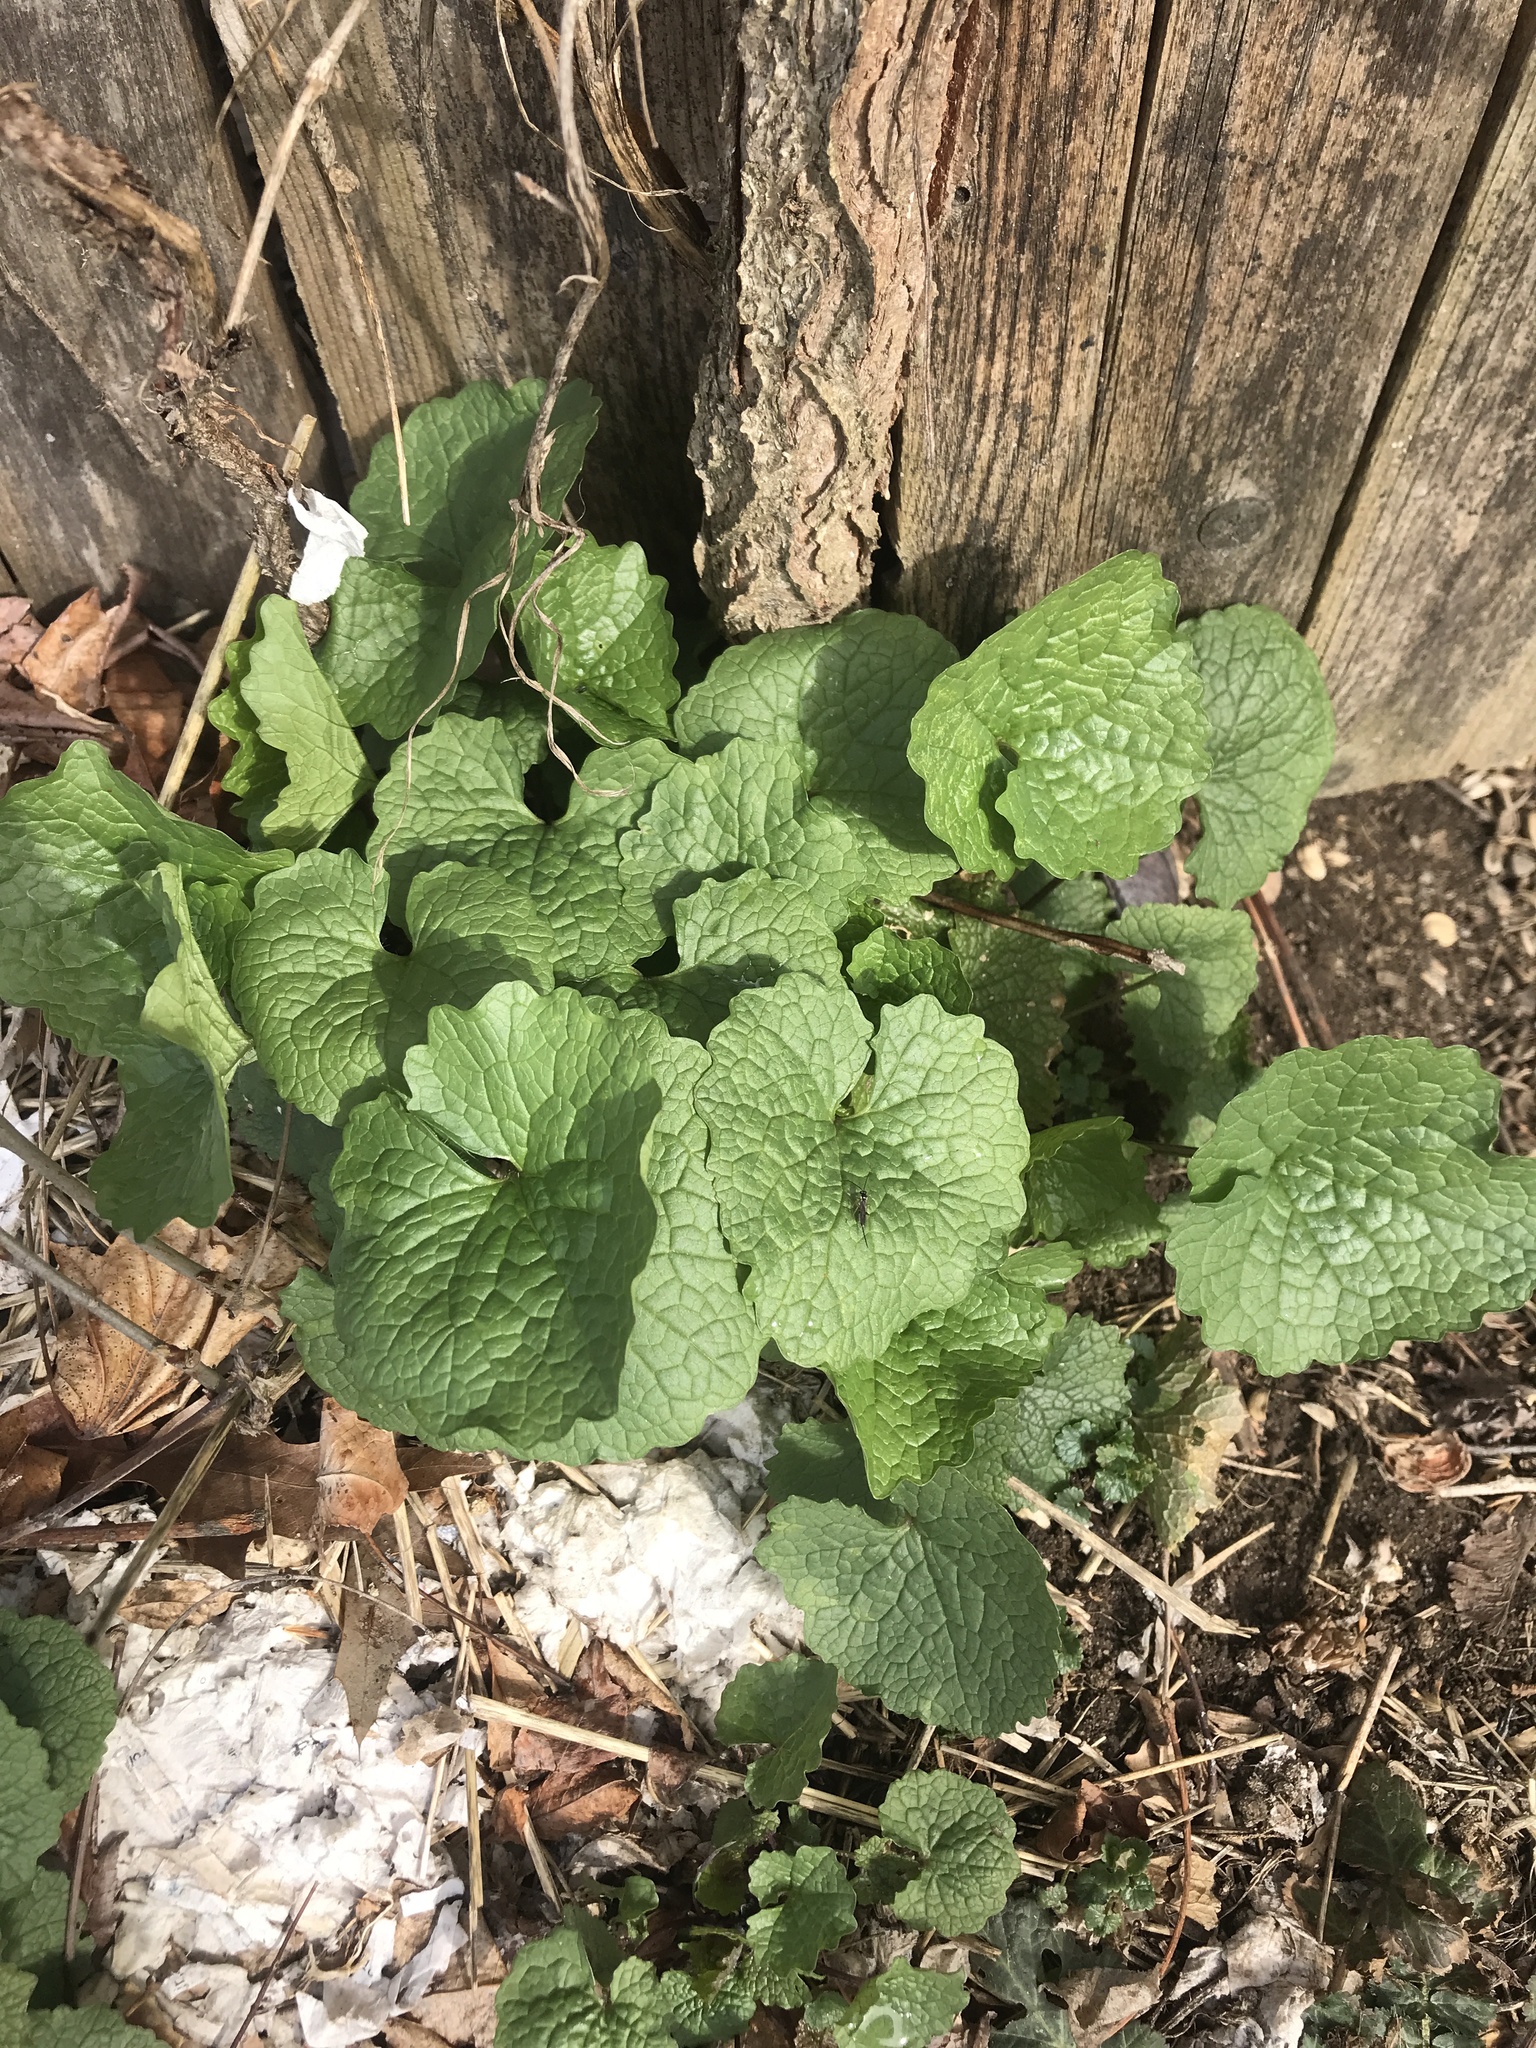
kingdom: Plantae
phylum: Tracheophyta
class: Magnoliopsida
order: Brassicales
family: Brassicaceae
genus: Alliaria
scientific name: Alliaria petiolata
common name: Garlic mustard
